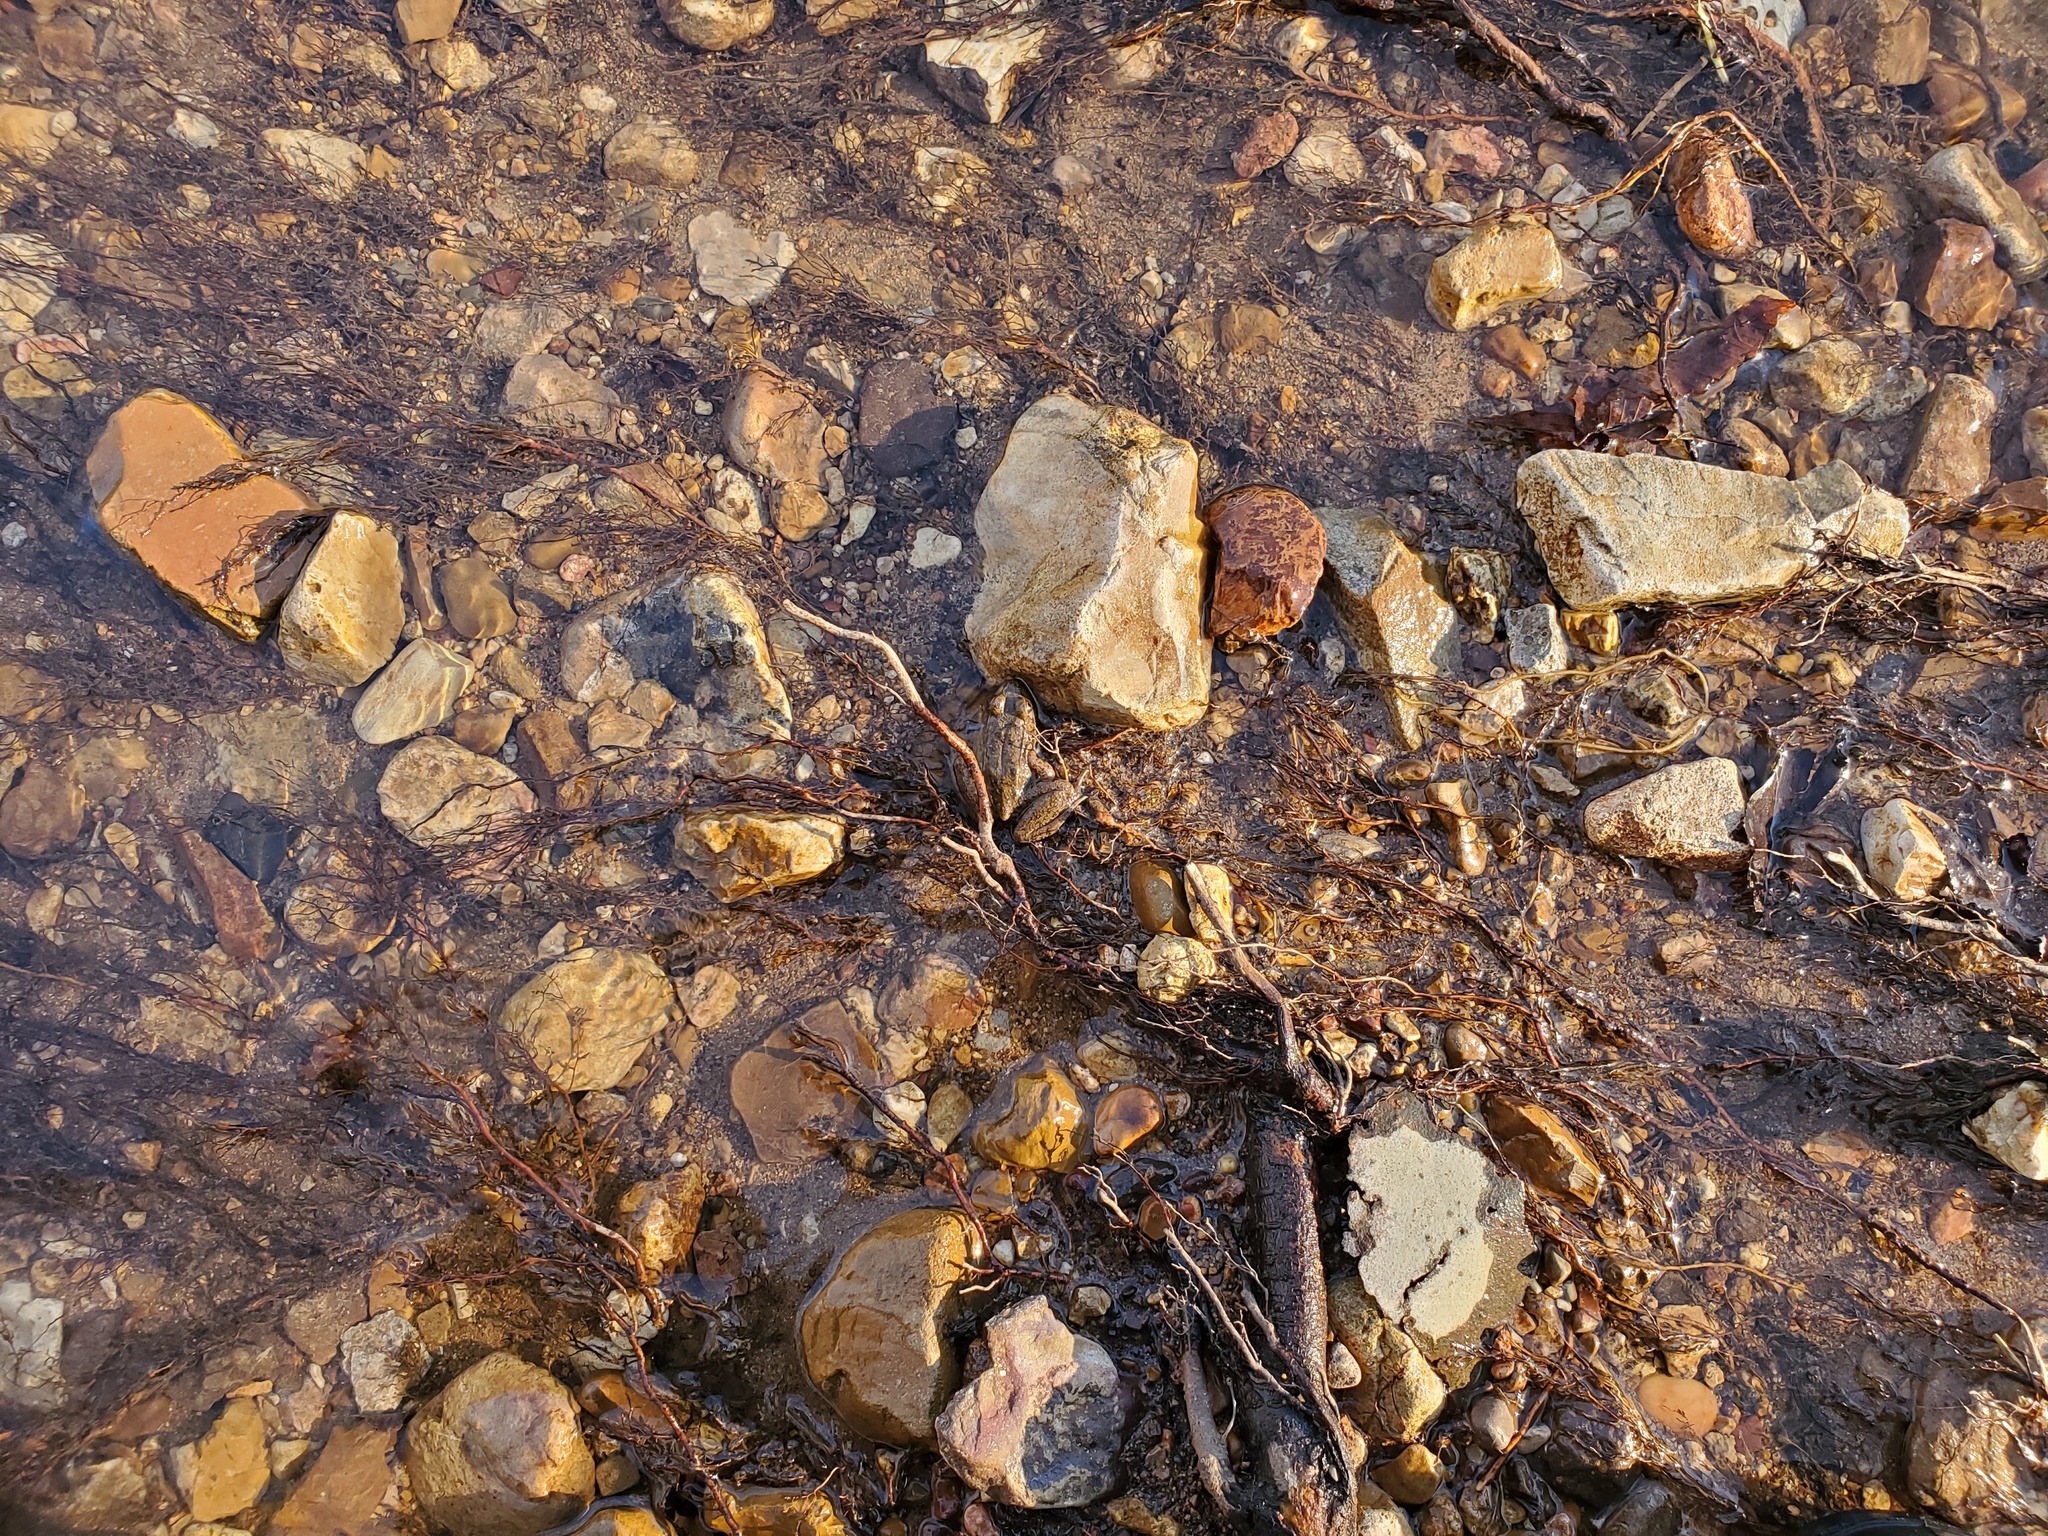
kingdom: Animalia
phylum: Chordata
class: Amphibia
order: Anura
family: Ranidae
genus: Lithobates
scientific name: Lithobates catesbeianus
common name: American bullfrog
